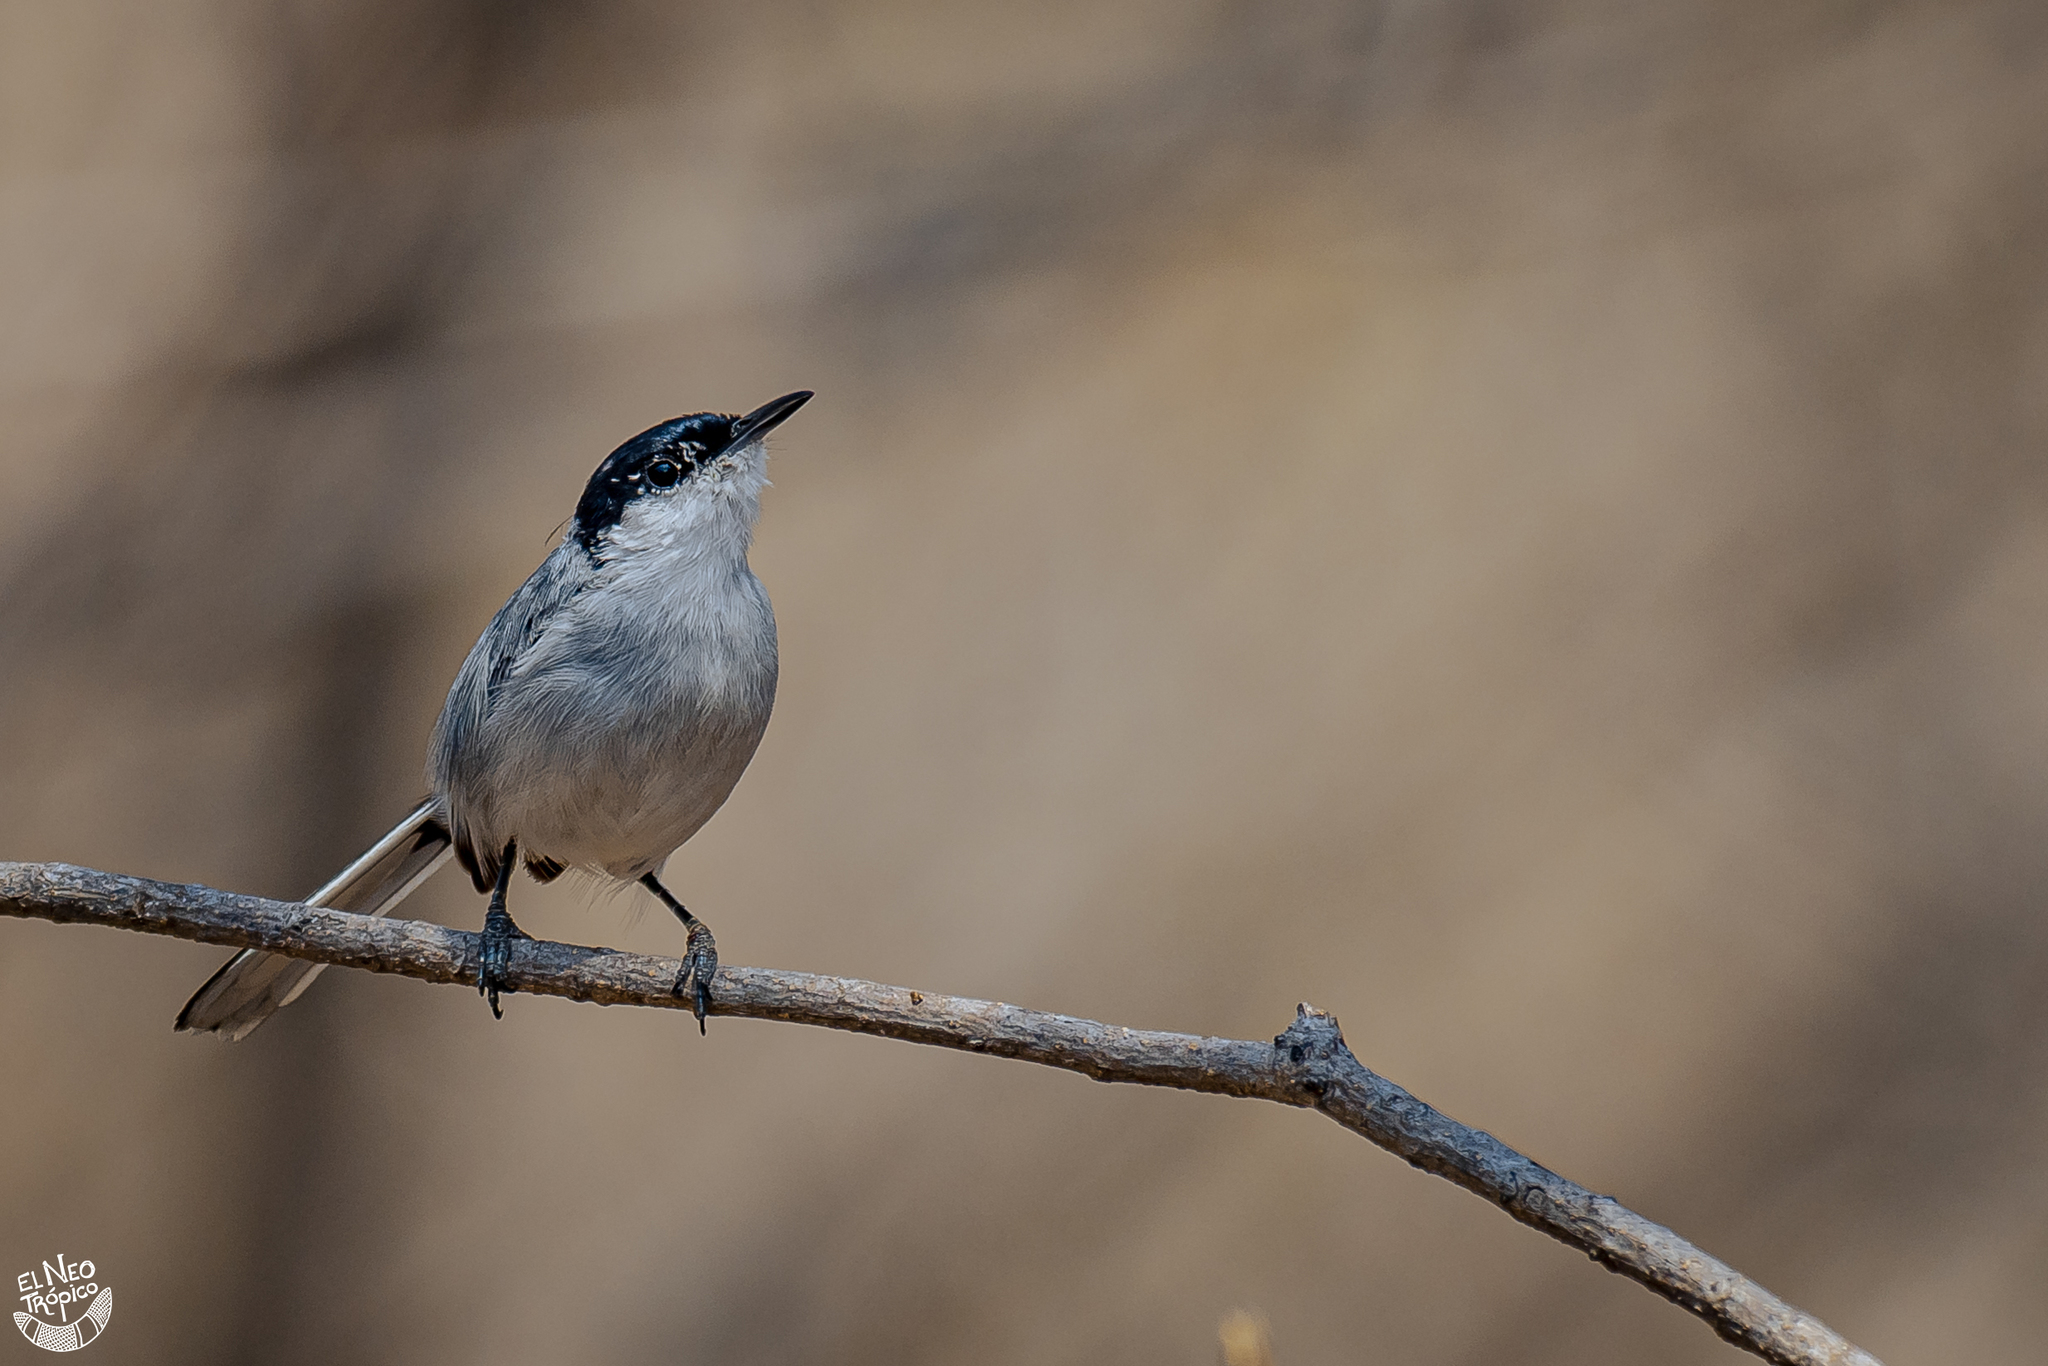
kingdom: Animalia
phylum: Chordata
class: Aves
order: Passeriformes
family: Polioptilidae
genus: Polioptila
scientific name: Polioptila albiloris
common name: White-lored gnatcatcher
